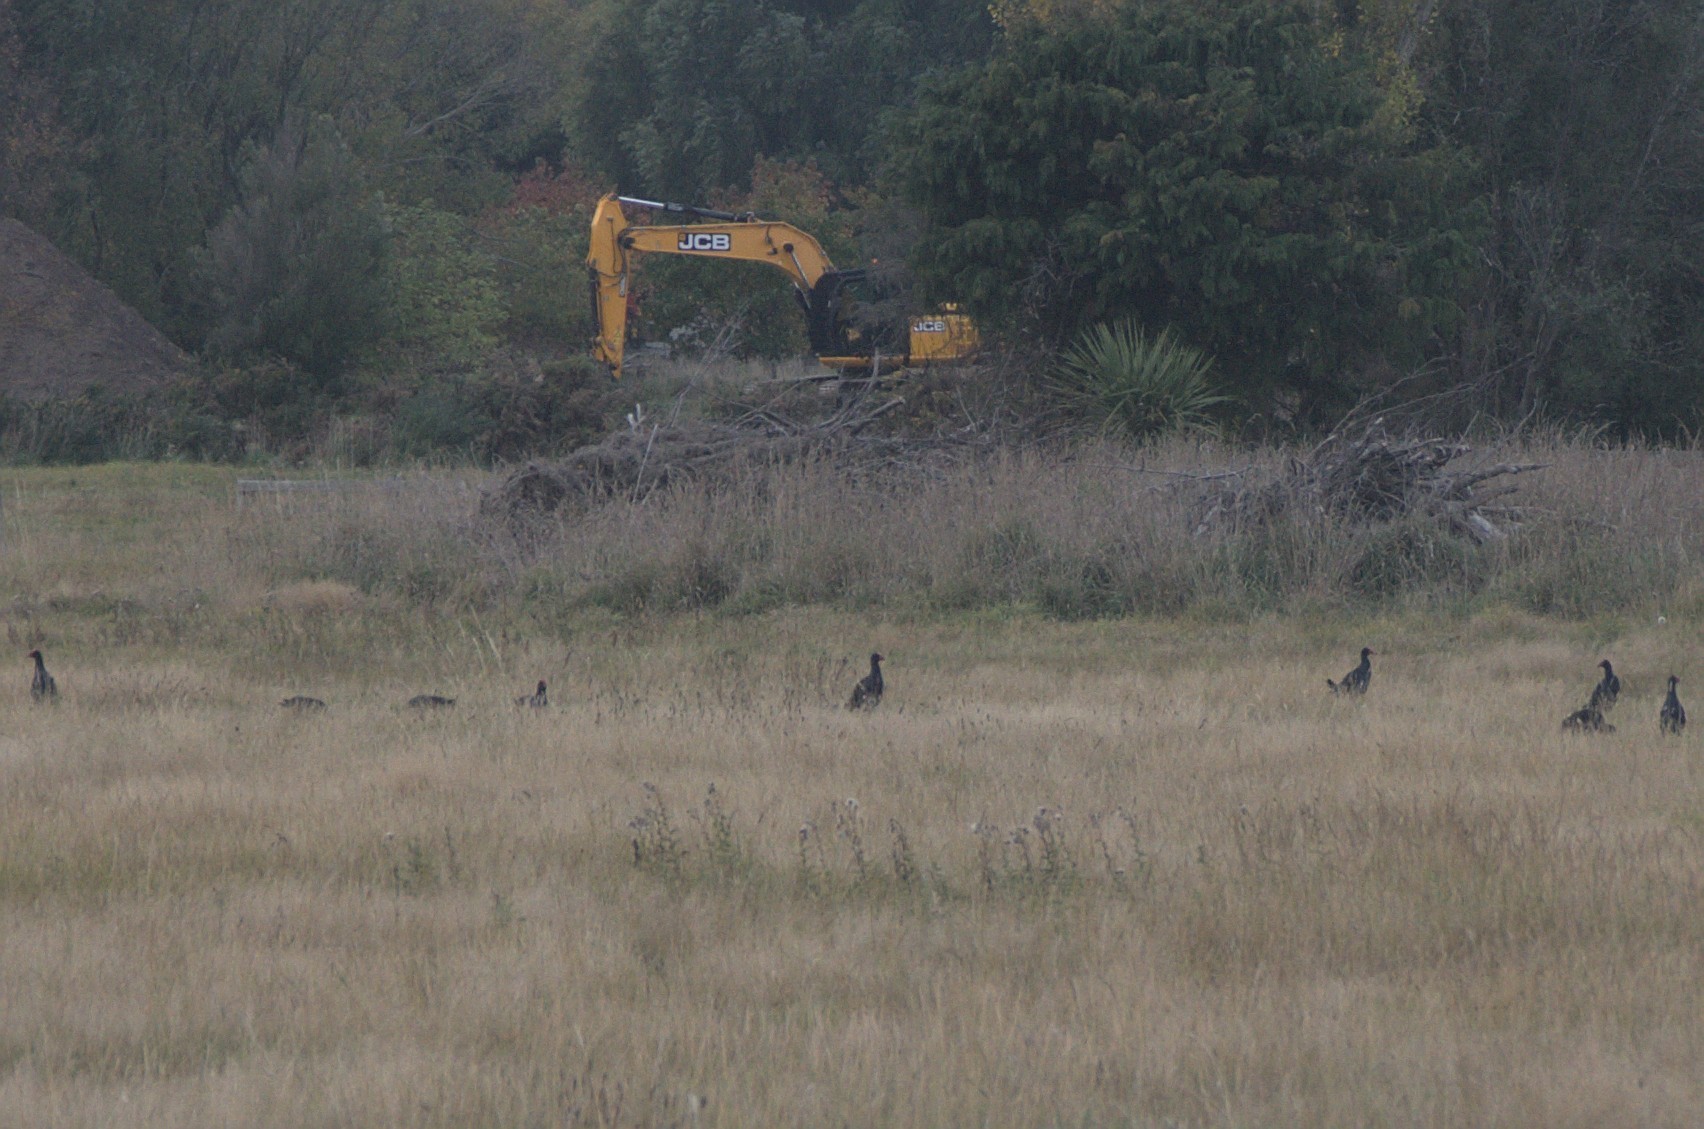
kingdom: Animalia
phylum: Chordata
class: Aves
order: Gruiformes
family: Rallidae
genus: Porphyrio
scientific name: Porphyrio melanotus
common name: Australasian swamphen
